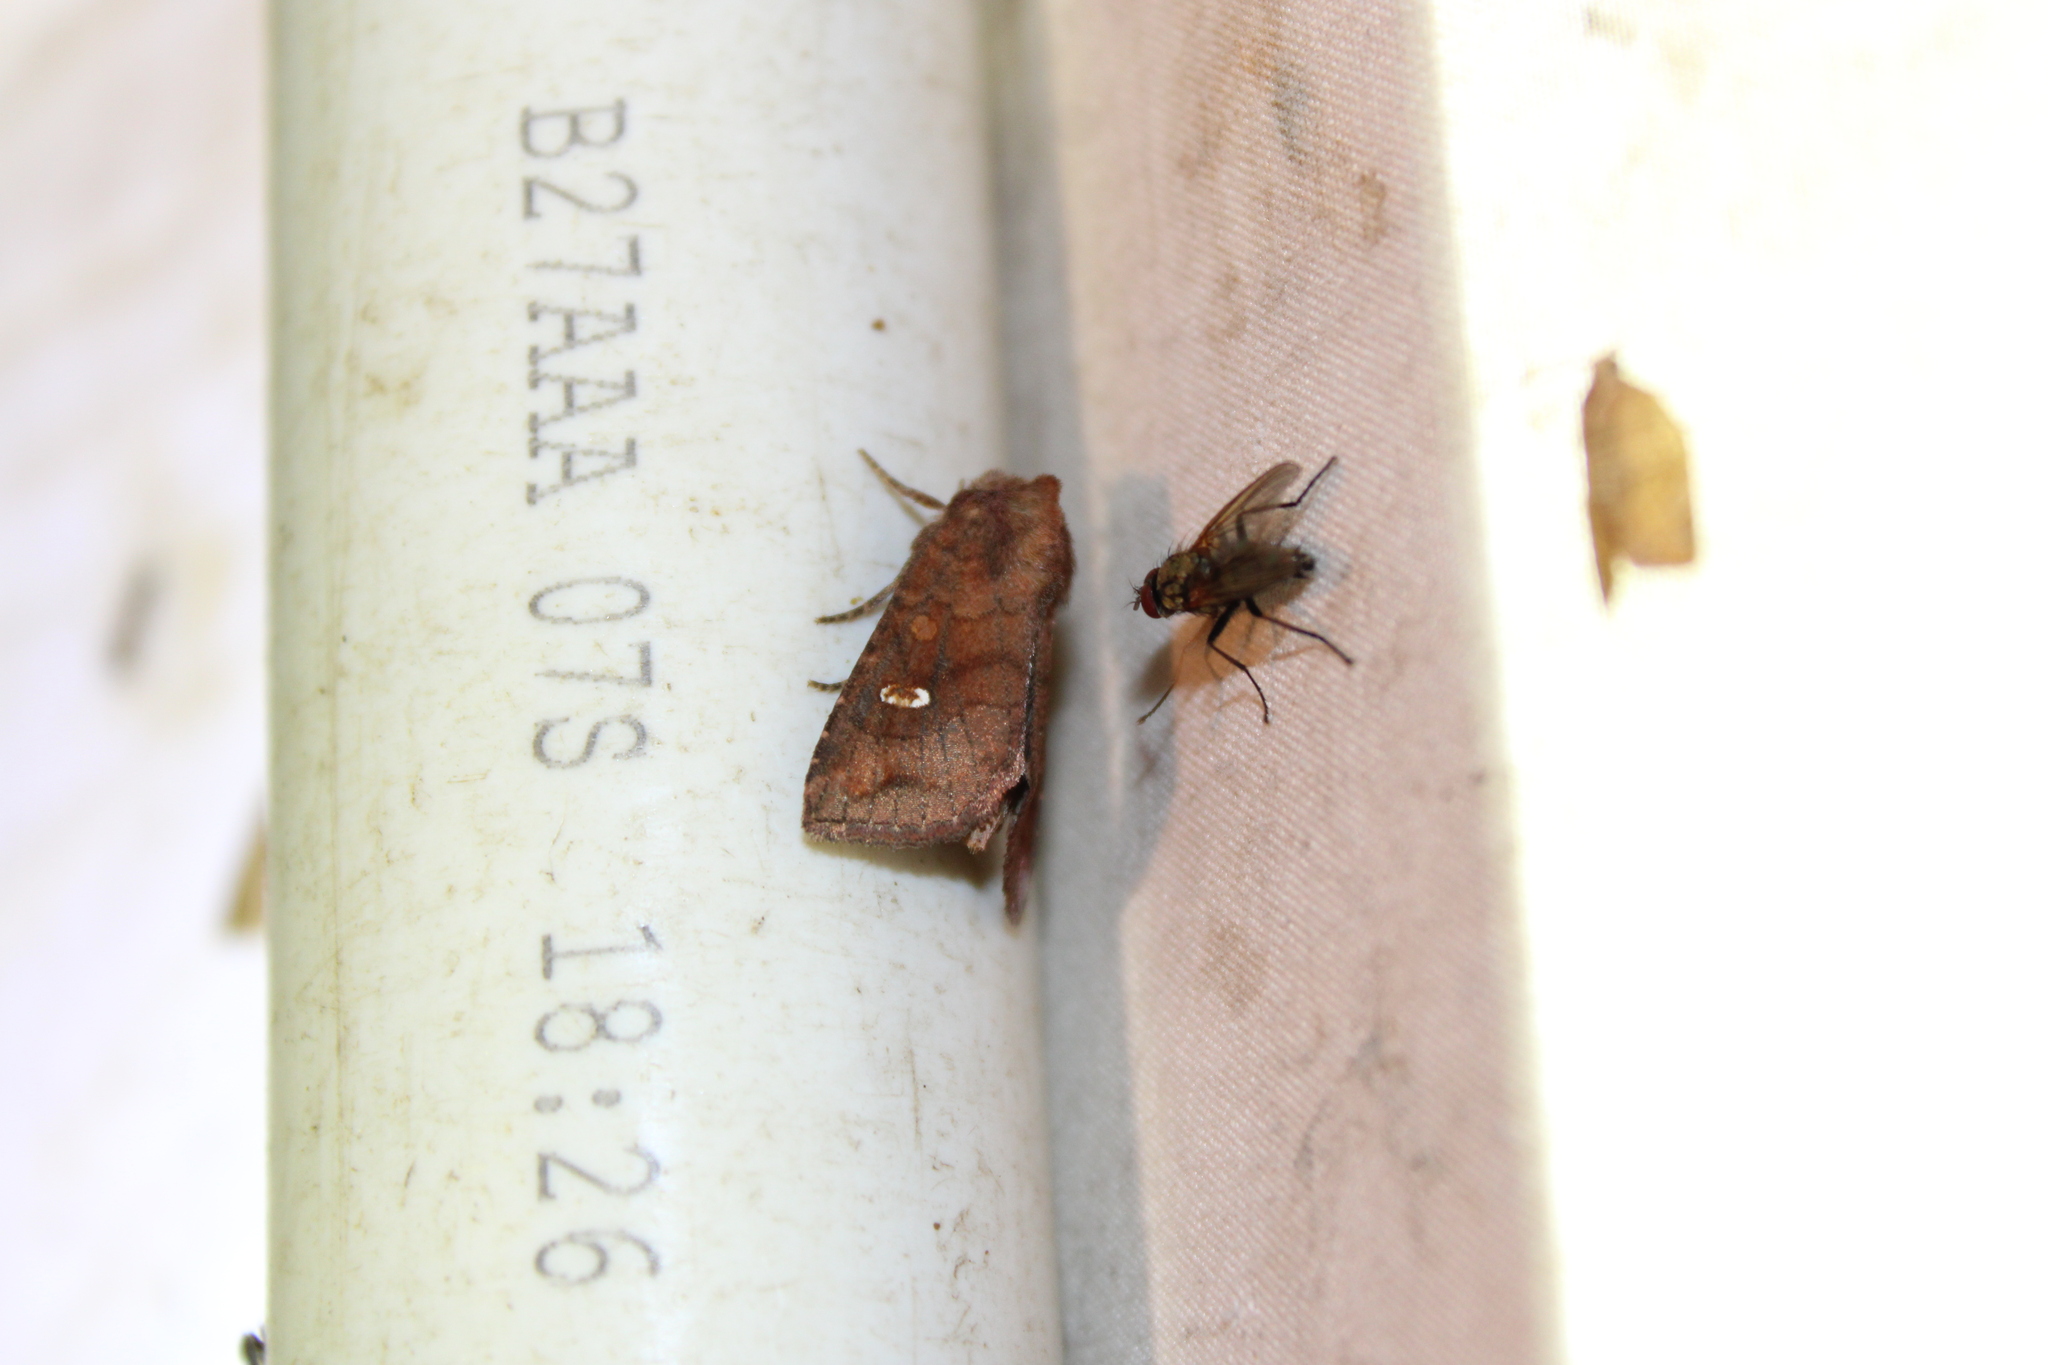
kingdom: Animalia
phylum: Arthropoda
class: Insecta
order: Lepidoptera
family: Noctuidae
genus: Tricholita
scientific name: Tricholita signata
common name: Signate quaker
